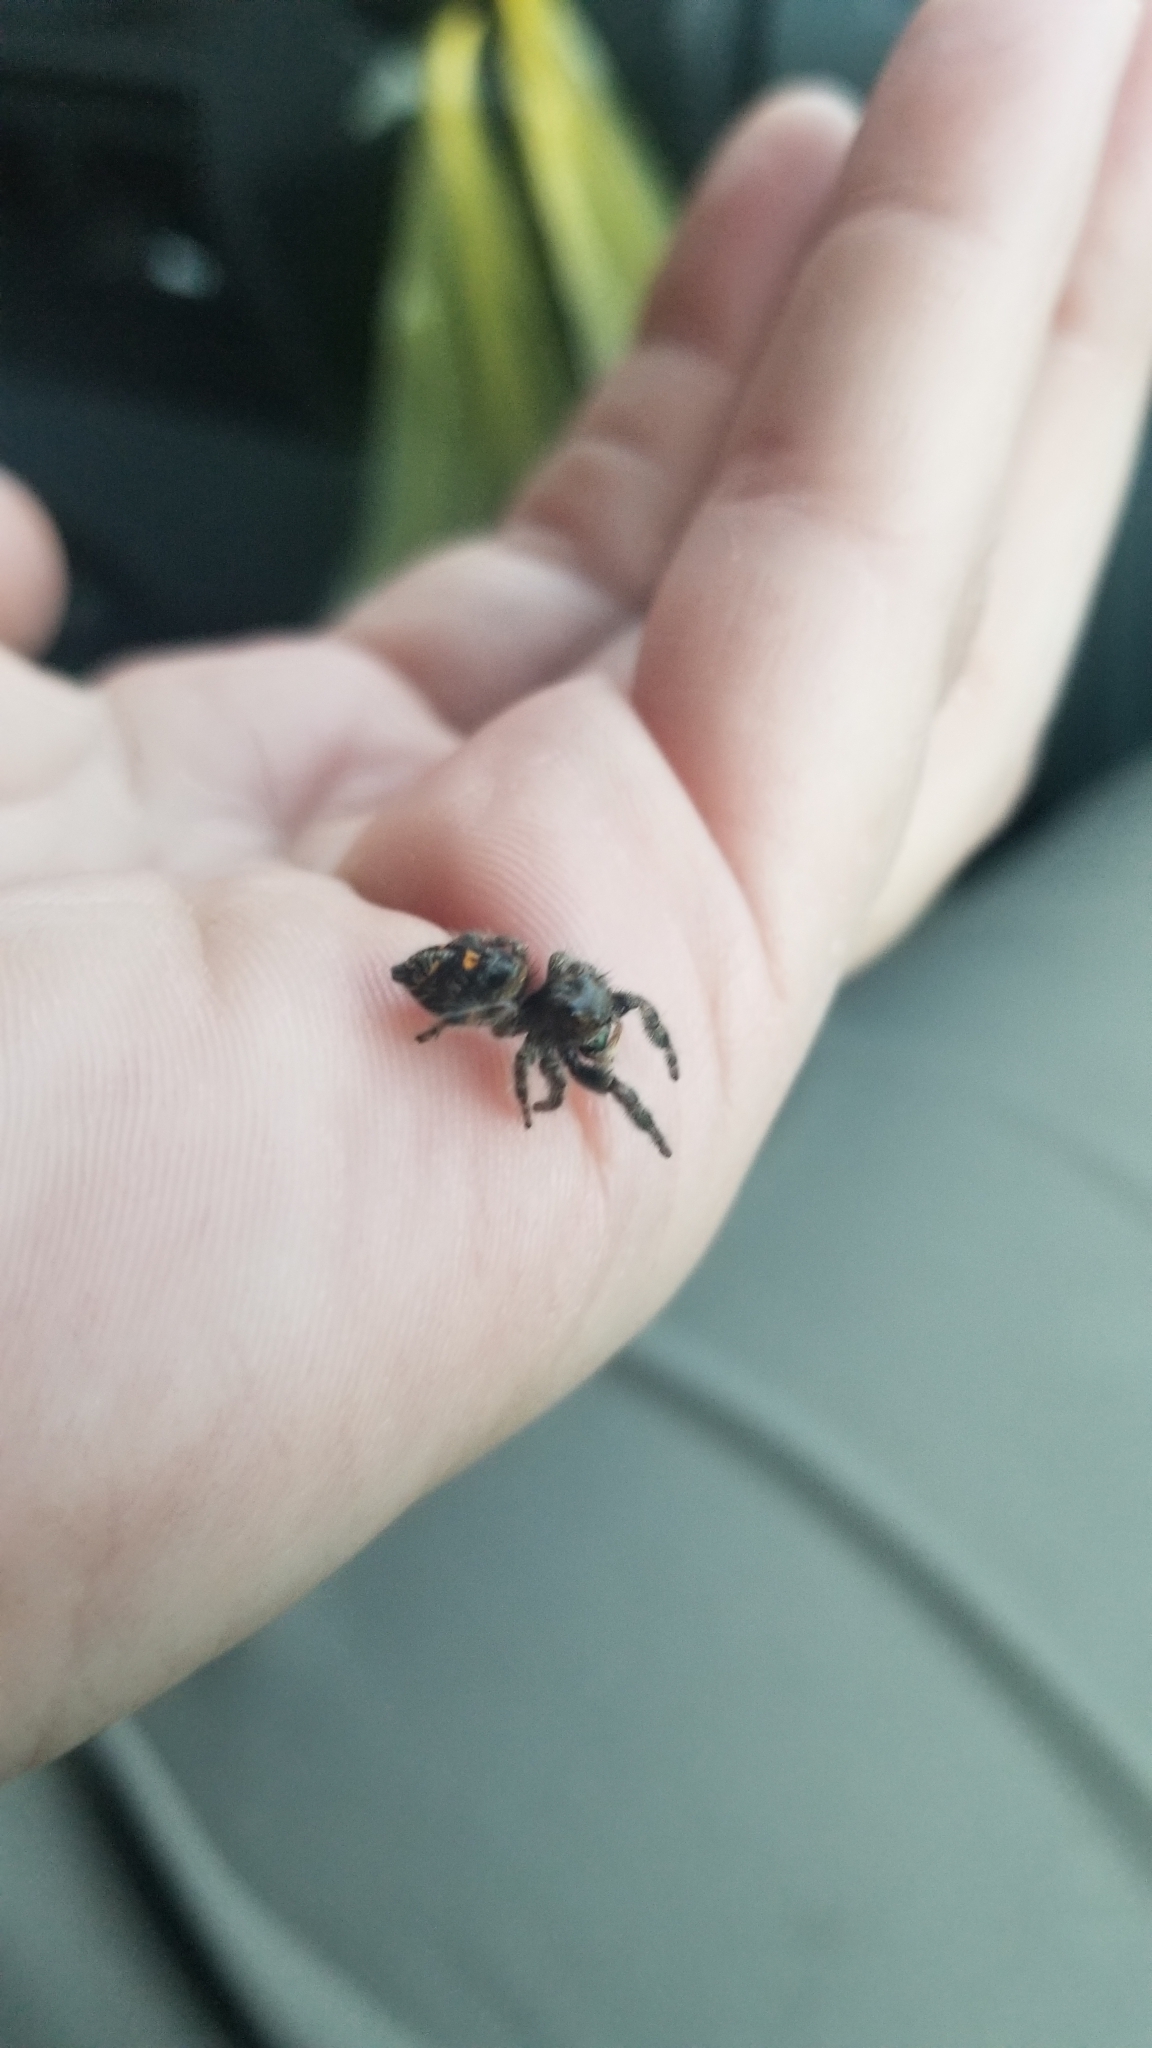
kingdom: Animalia
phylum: Arthropoda
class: Arachnida
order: Araneae
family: Salticidae
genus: Phidippus
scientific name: Phidippus audax
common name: Bold jumper
